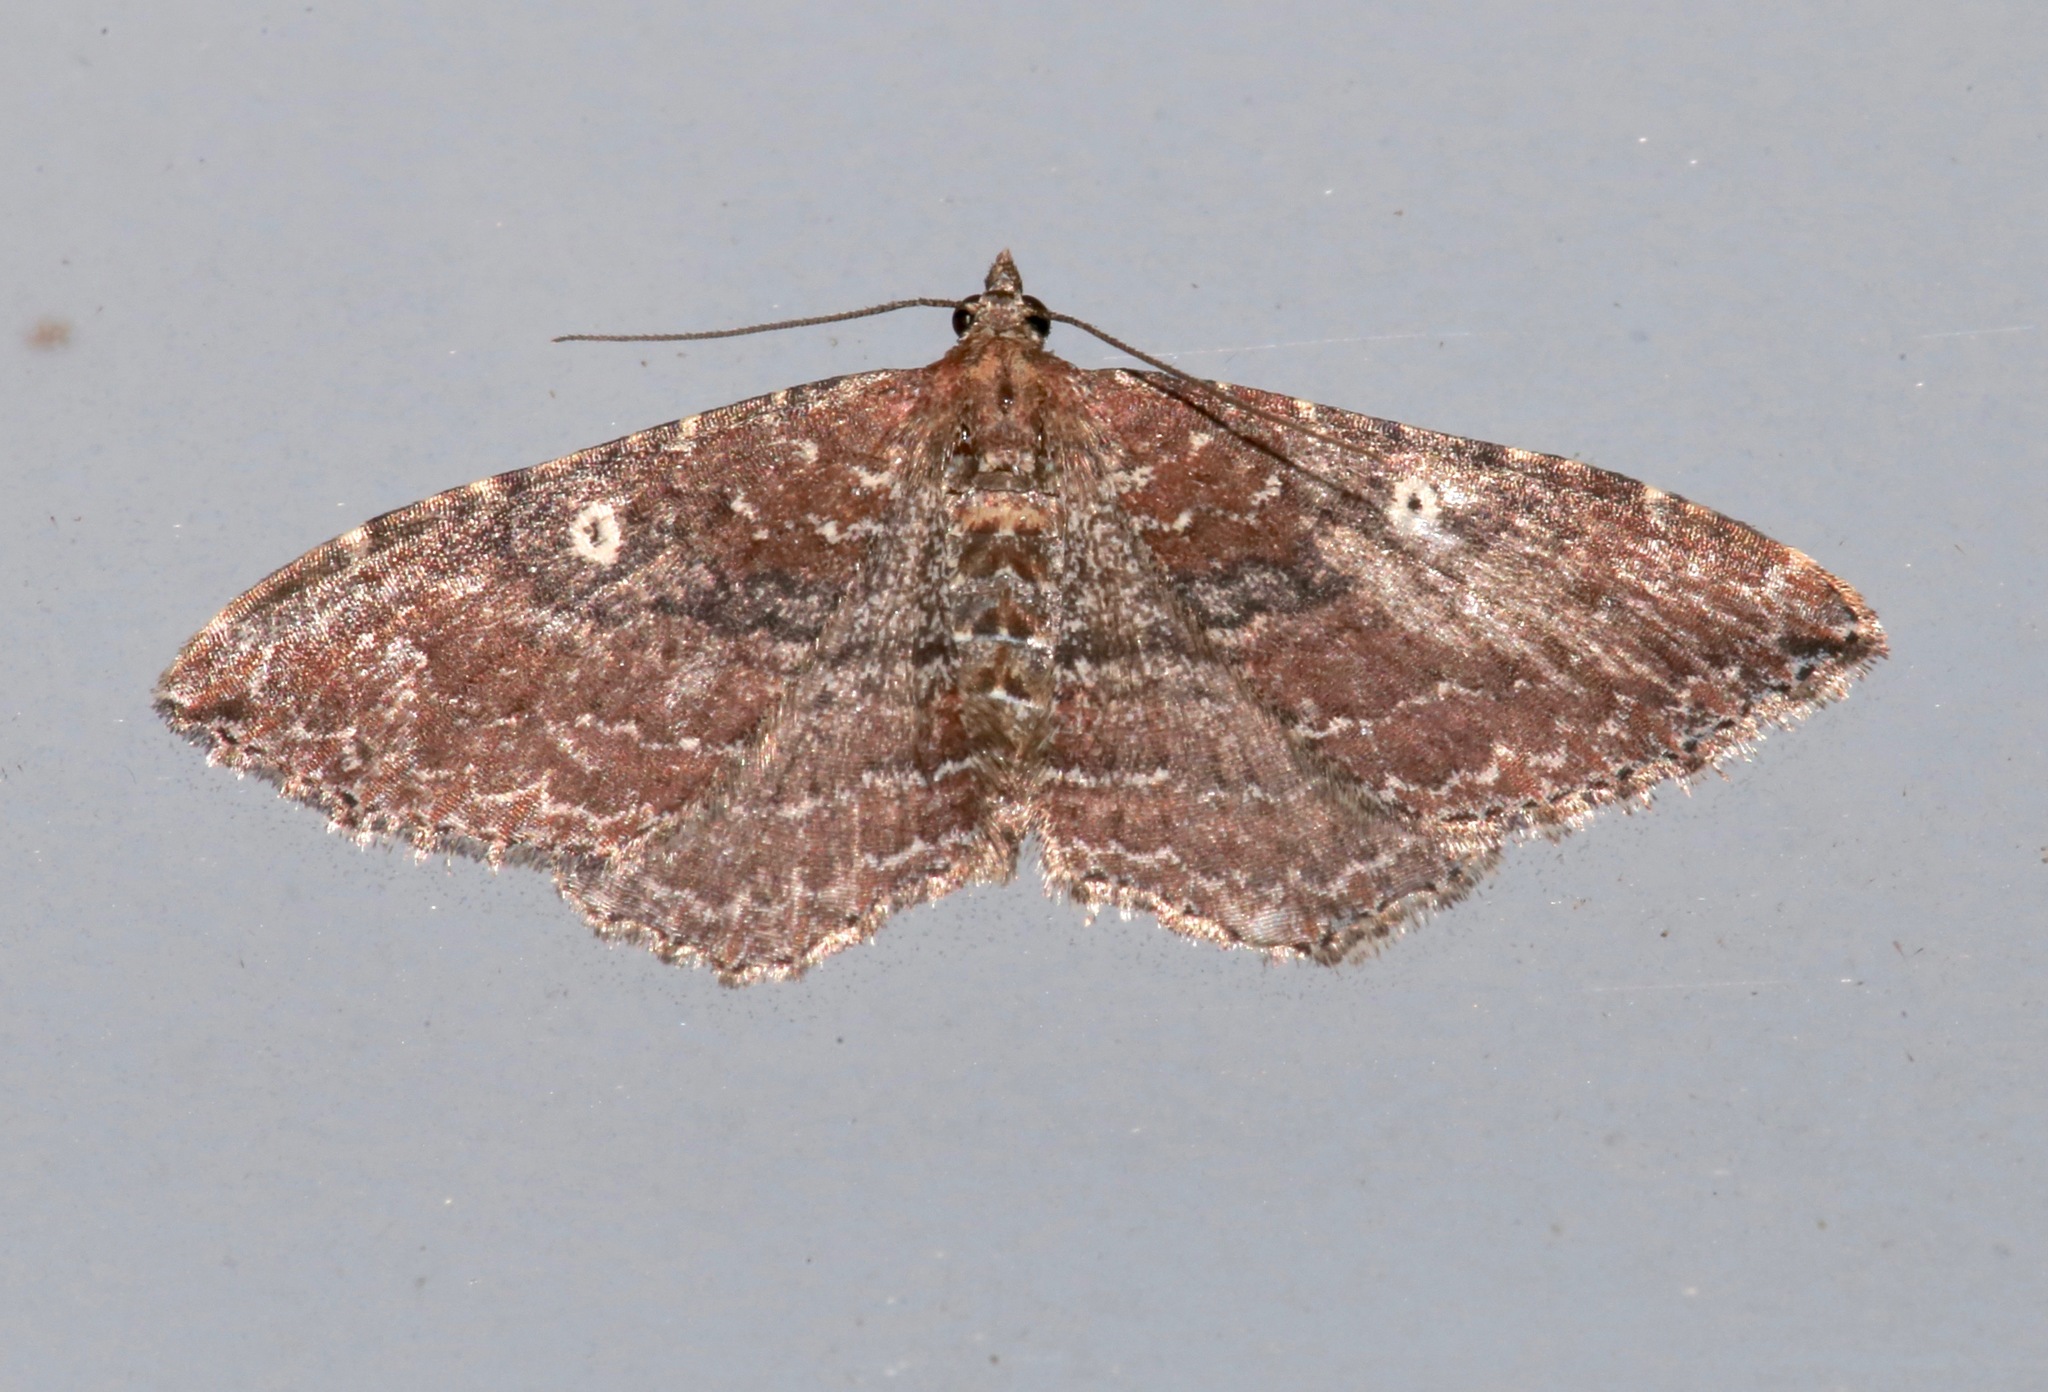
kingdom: Animalia
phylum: Arthropoda
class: Insecta
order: Lepidoptera
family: Geometridae
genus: Orthonama
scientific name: Orthonama obstipata
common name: The gem
